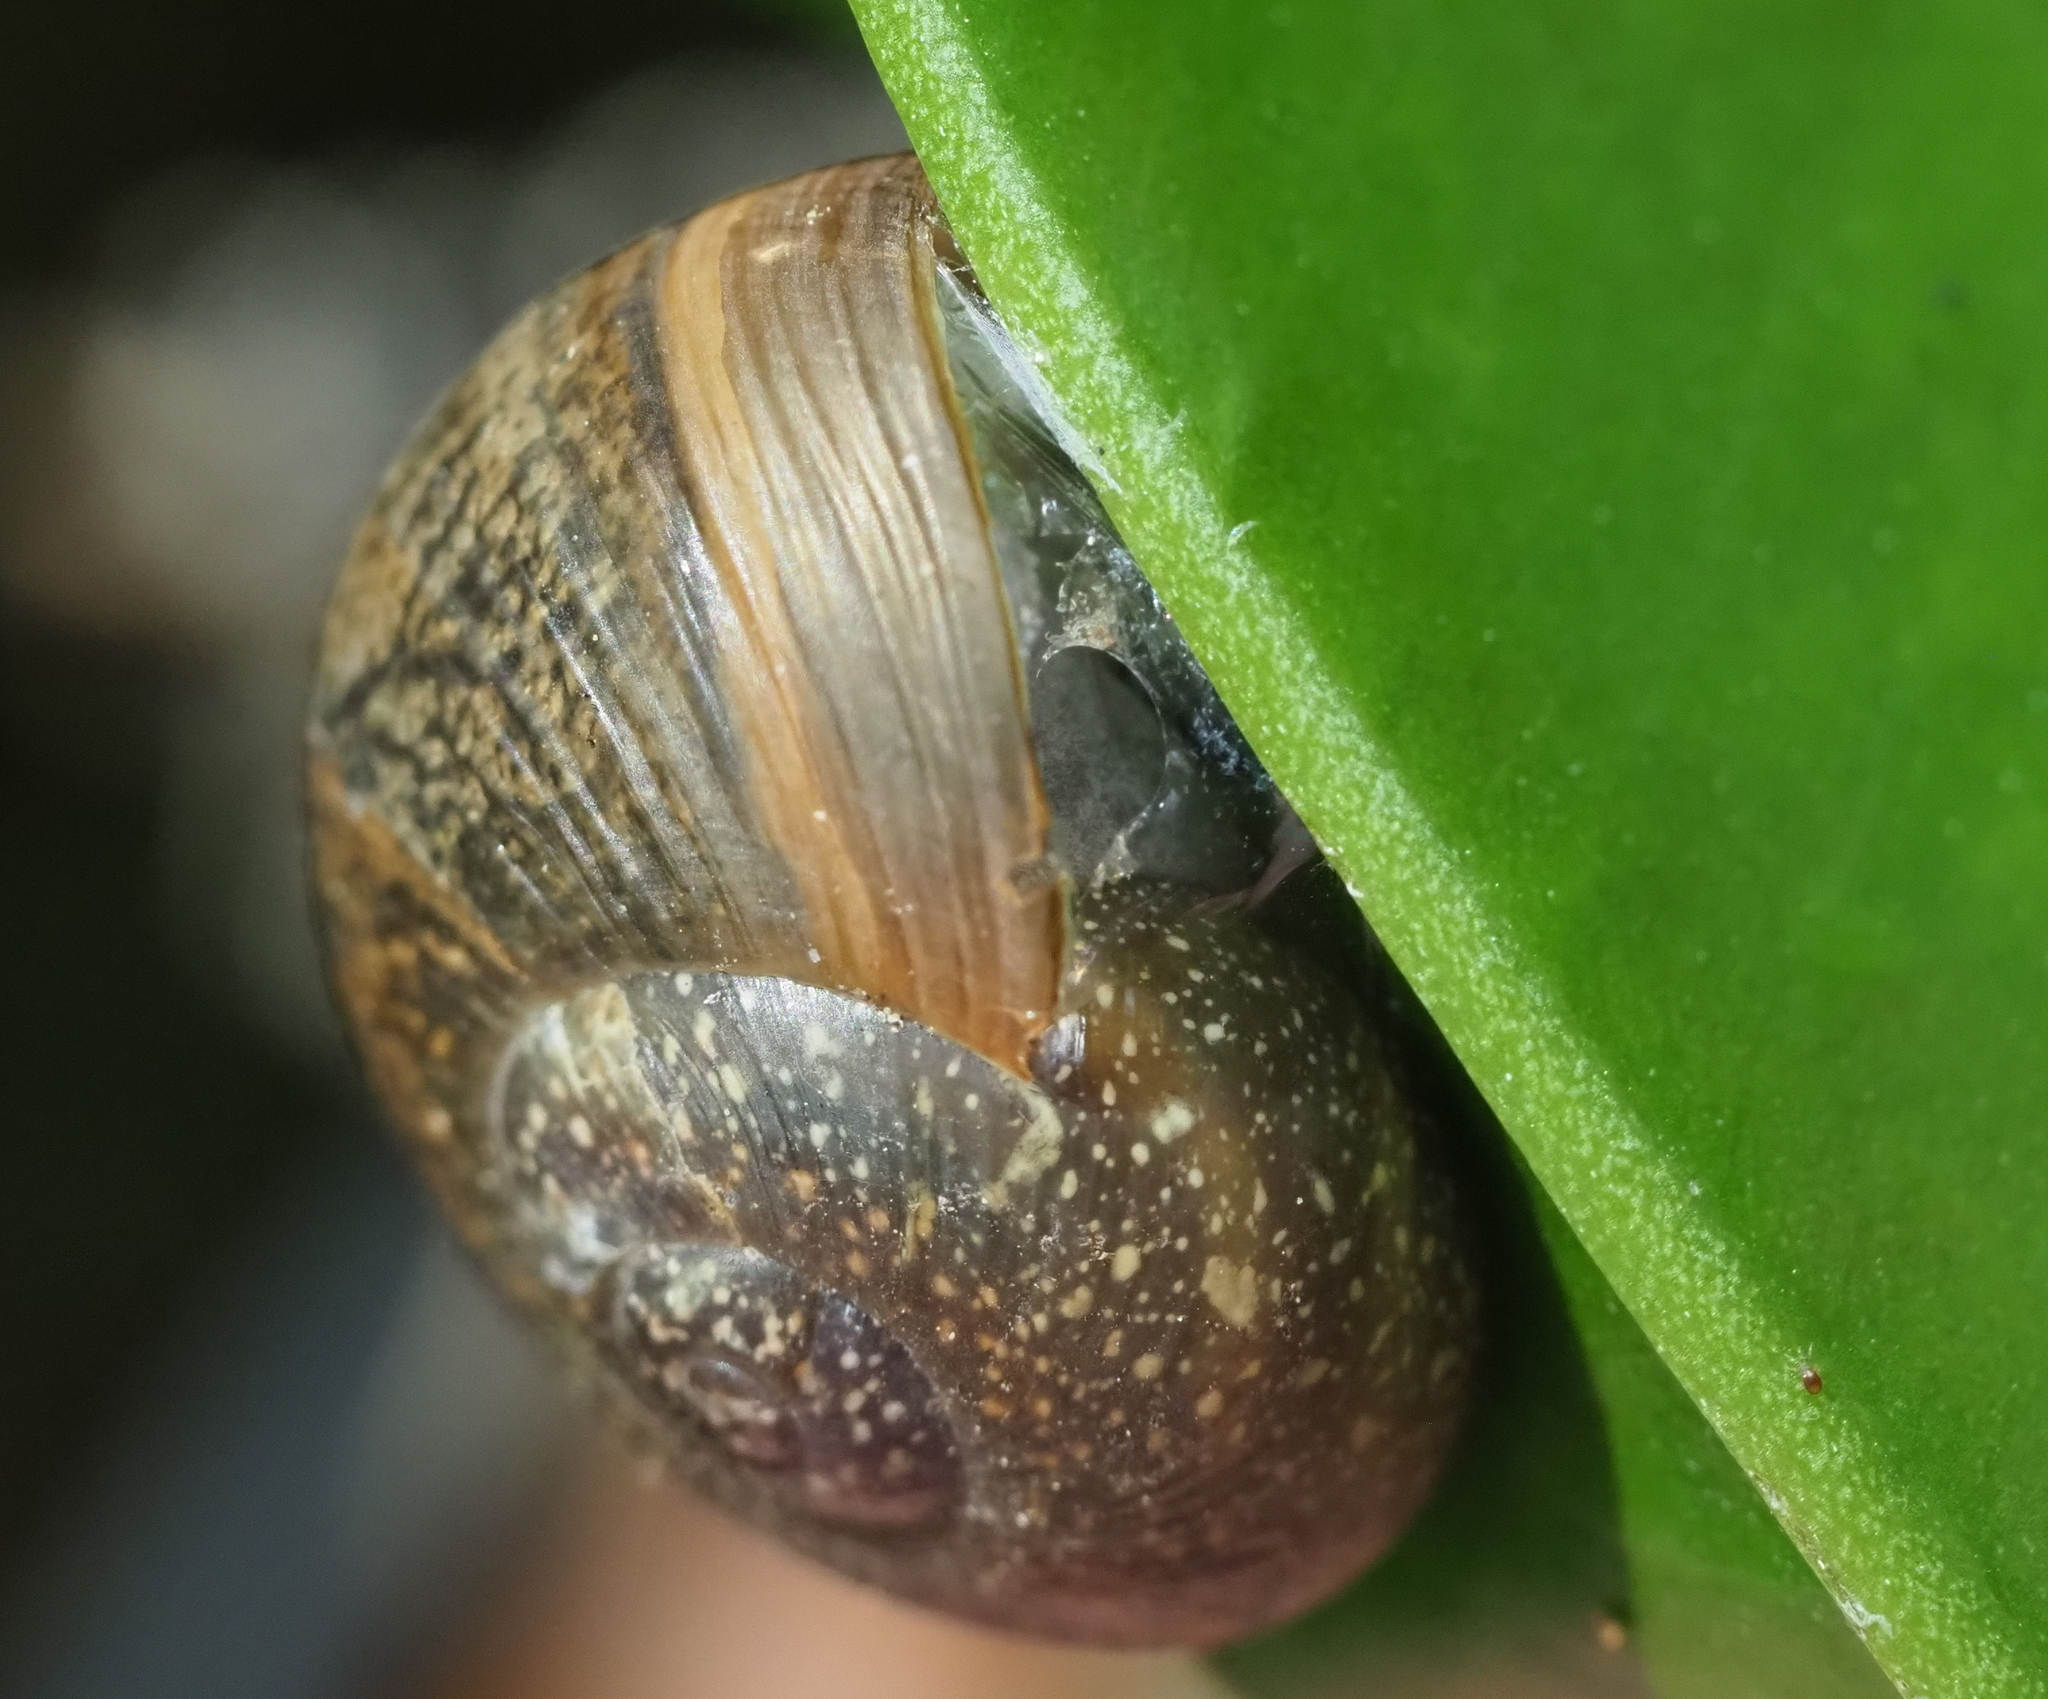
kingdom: Animalia
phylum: Mollusca
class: Gastropoda
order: Stylommatophora
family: Zachrysiidae
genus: Zachrysia
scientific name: Zachrysia provisoria
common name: Garden zachrysia
